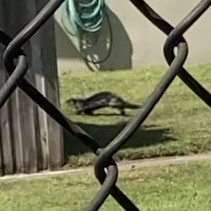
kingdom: Animalia
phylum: Chordata
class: Mammalia
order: Carnivora
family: Mustelidae
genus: Lontra
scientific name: Lontra canadensis
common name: North american river otter
